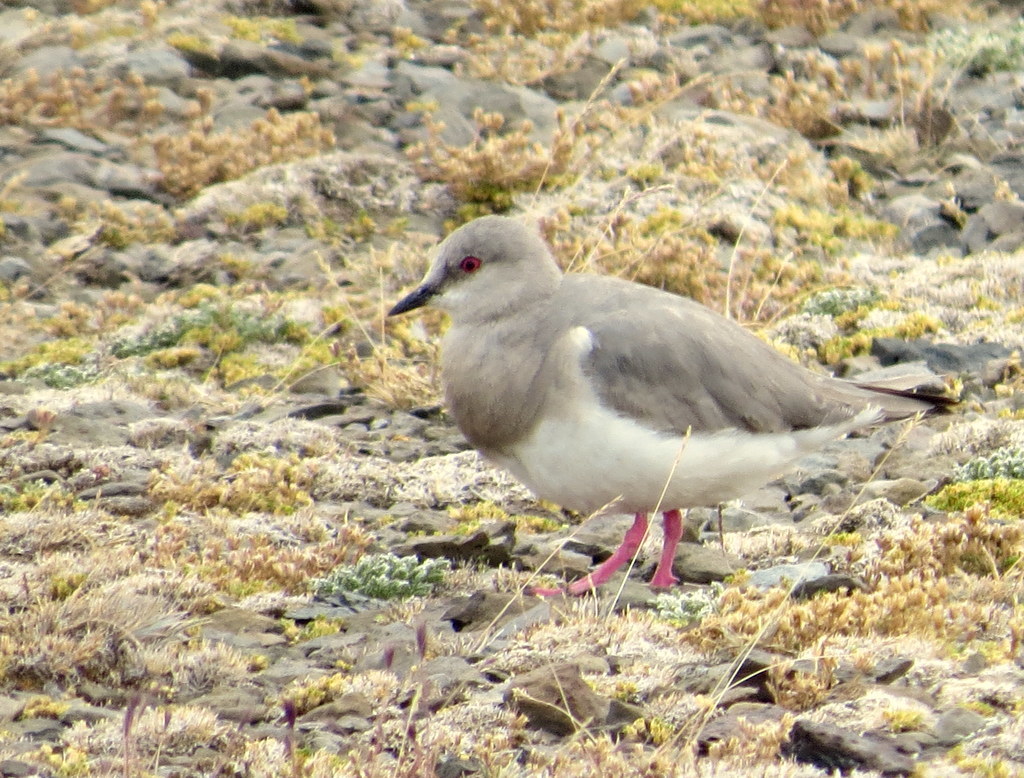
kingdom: Animalia
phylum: Chordata
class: Aves
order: Charadriiformes
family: Pluvianellidae
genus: Pluvianellus
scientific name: Pluvianellus socialis
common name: Magellanic plover
